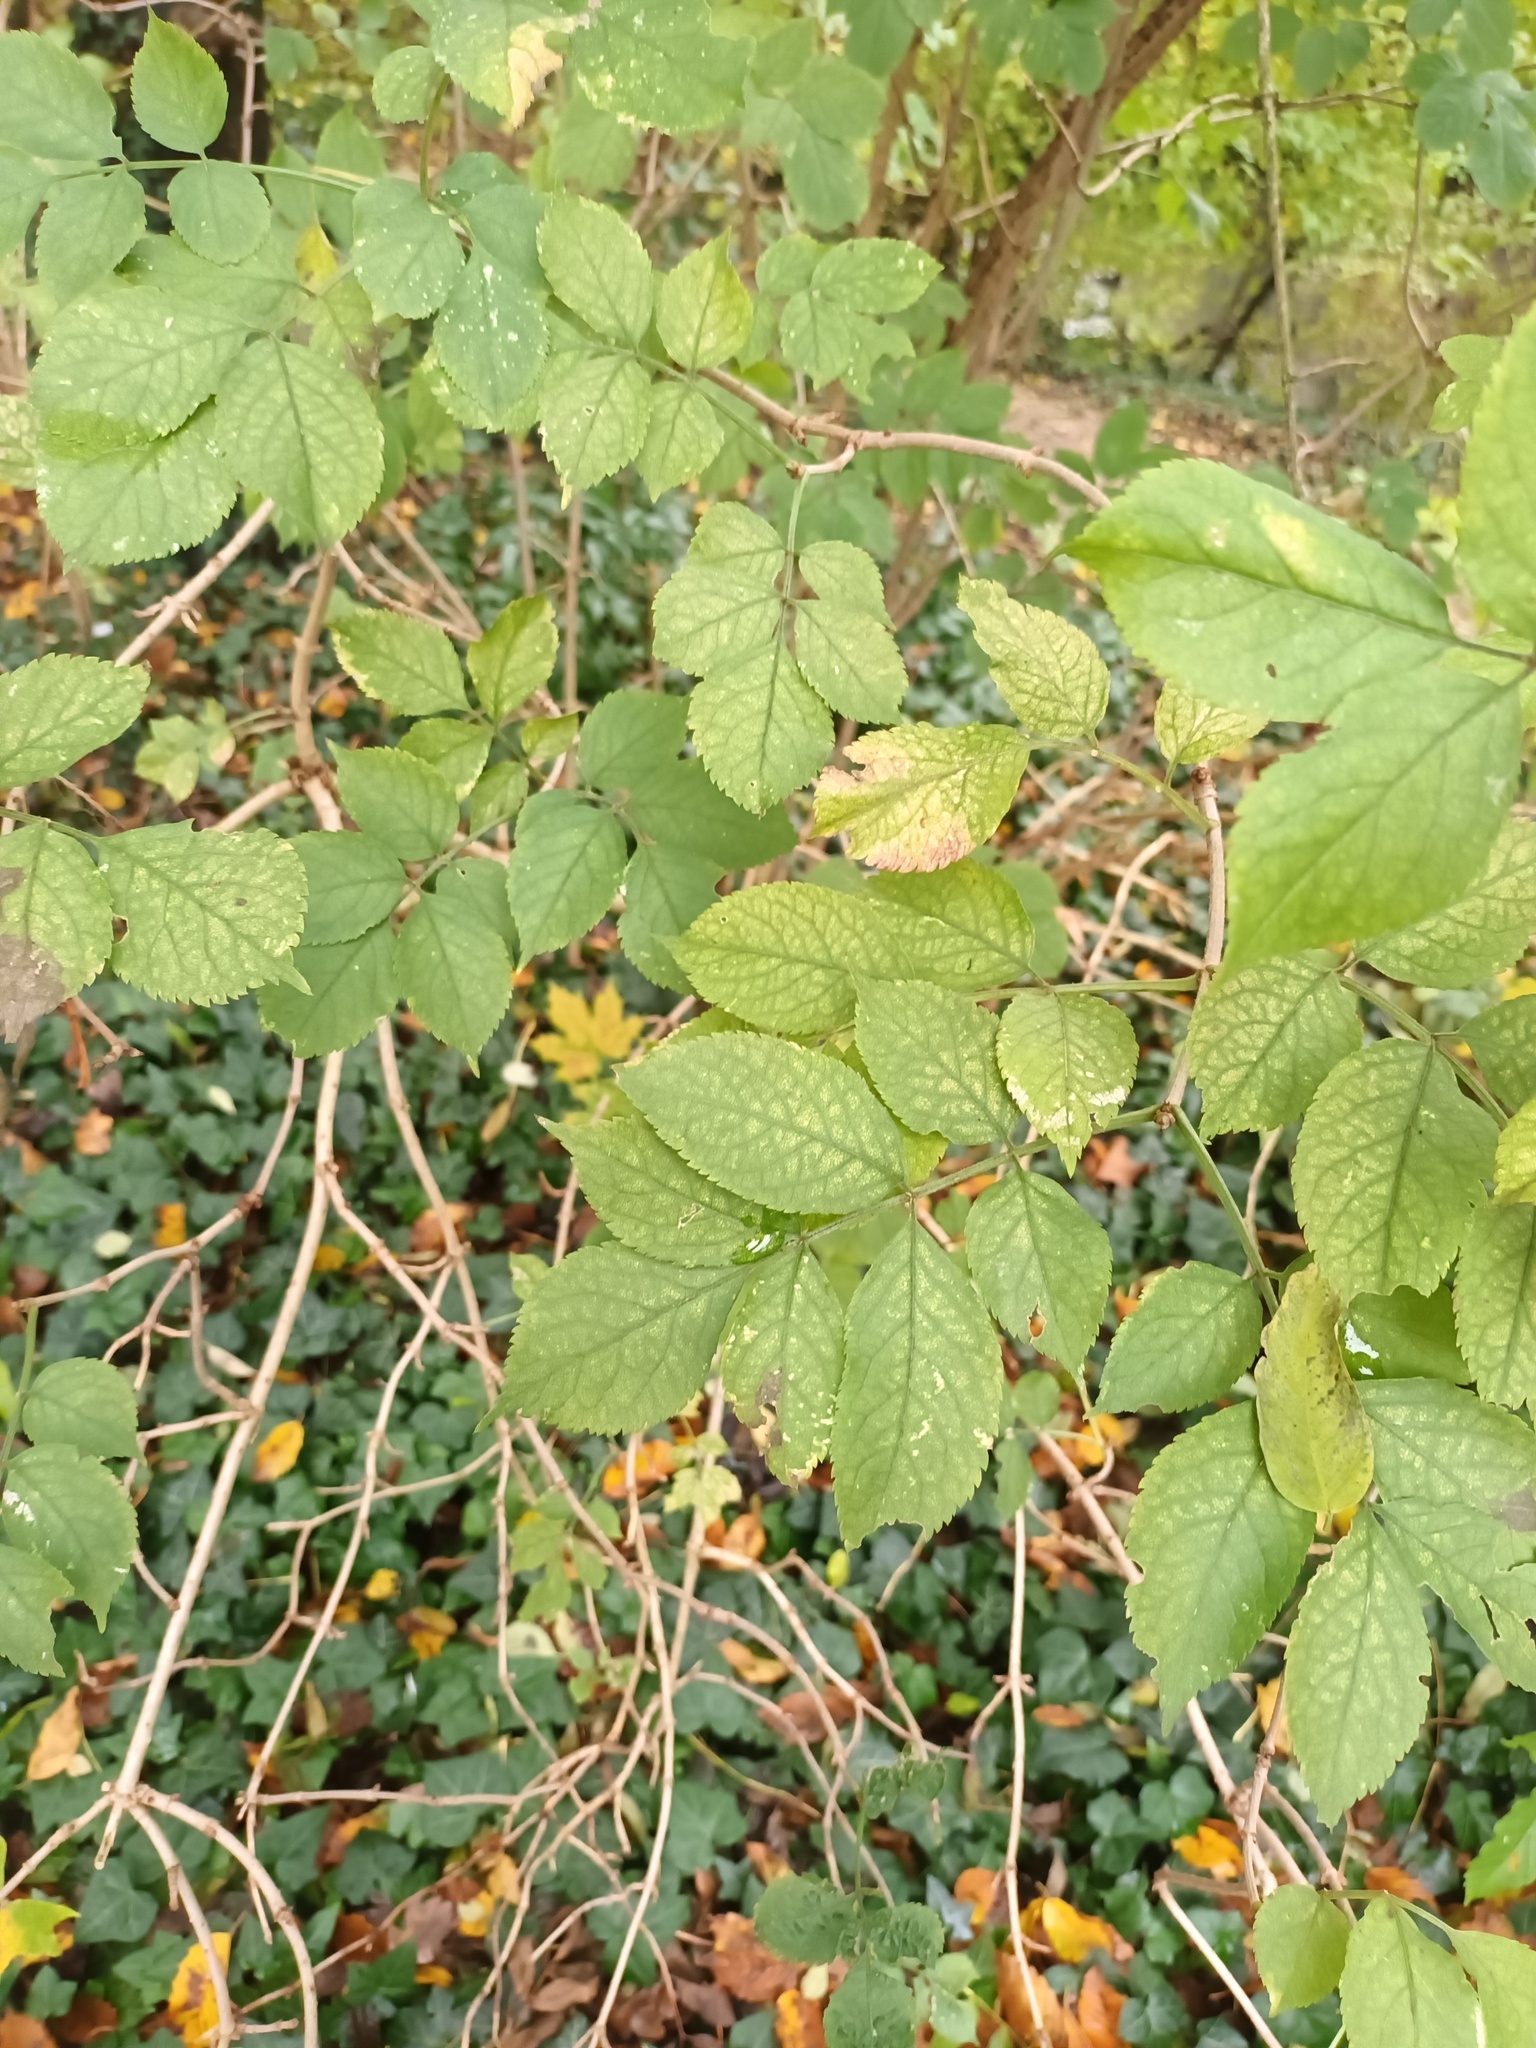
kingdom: Plantae
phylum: Tracheophyta
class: Magnoliopsida
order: Dipsacales
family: Viburnaceae
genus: Sambucus
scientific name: Sambucus nigra
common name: Elder
